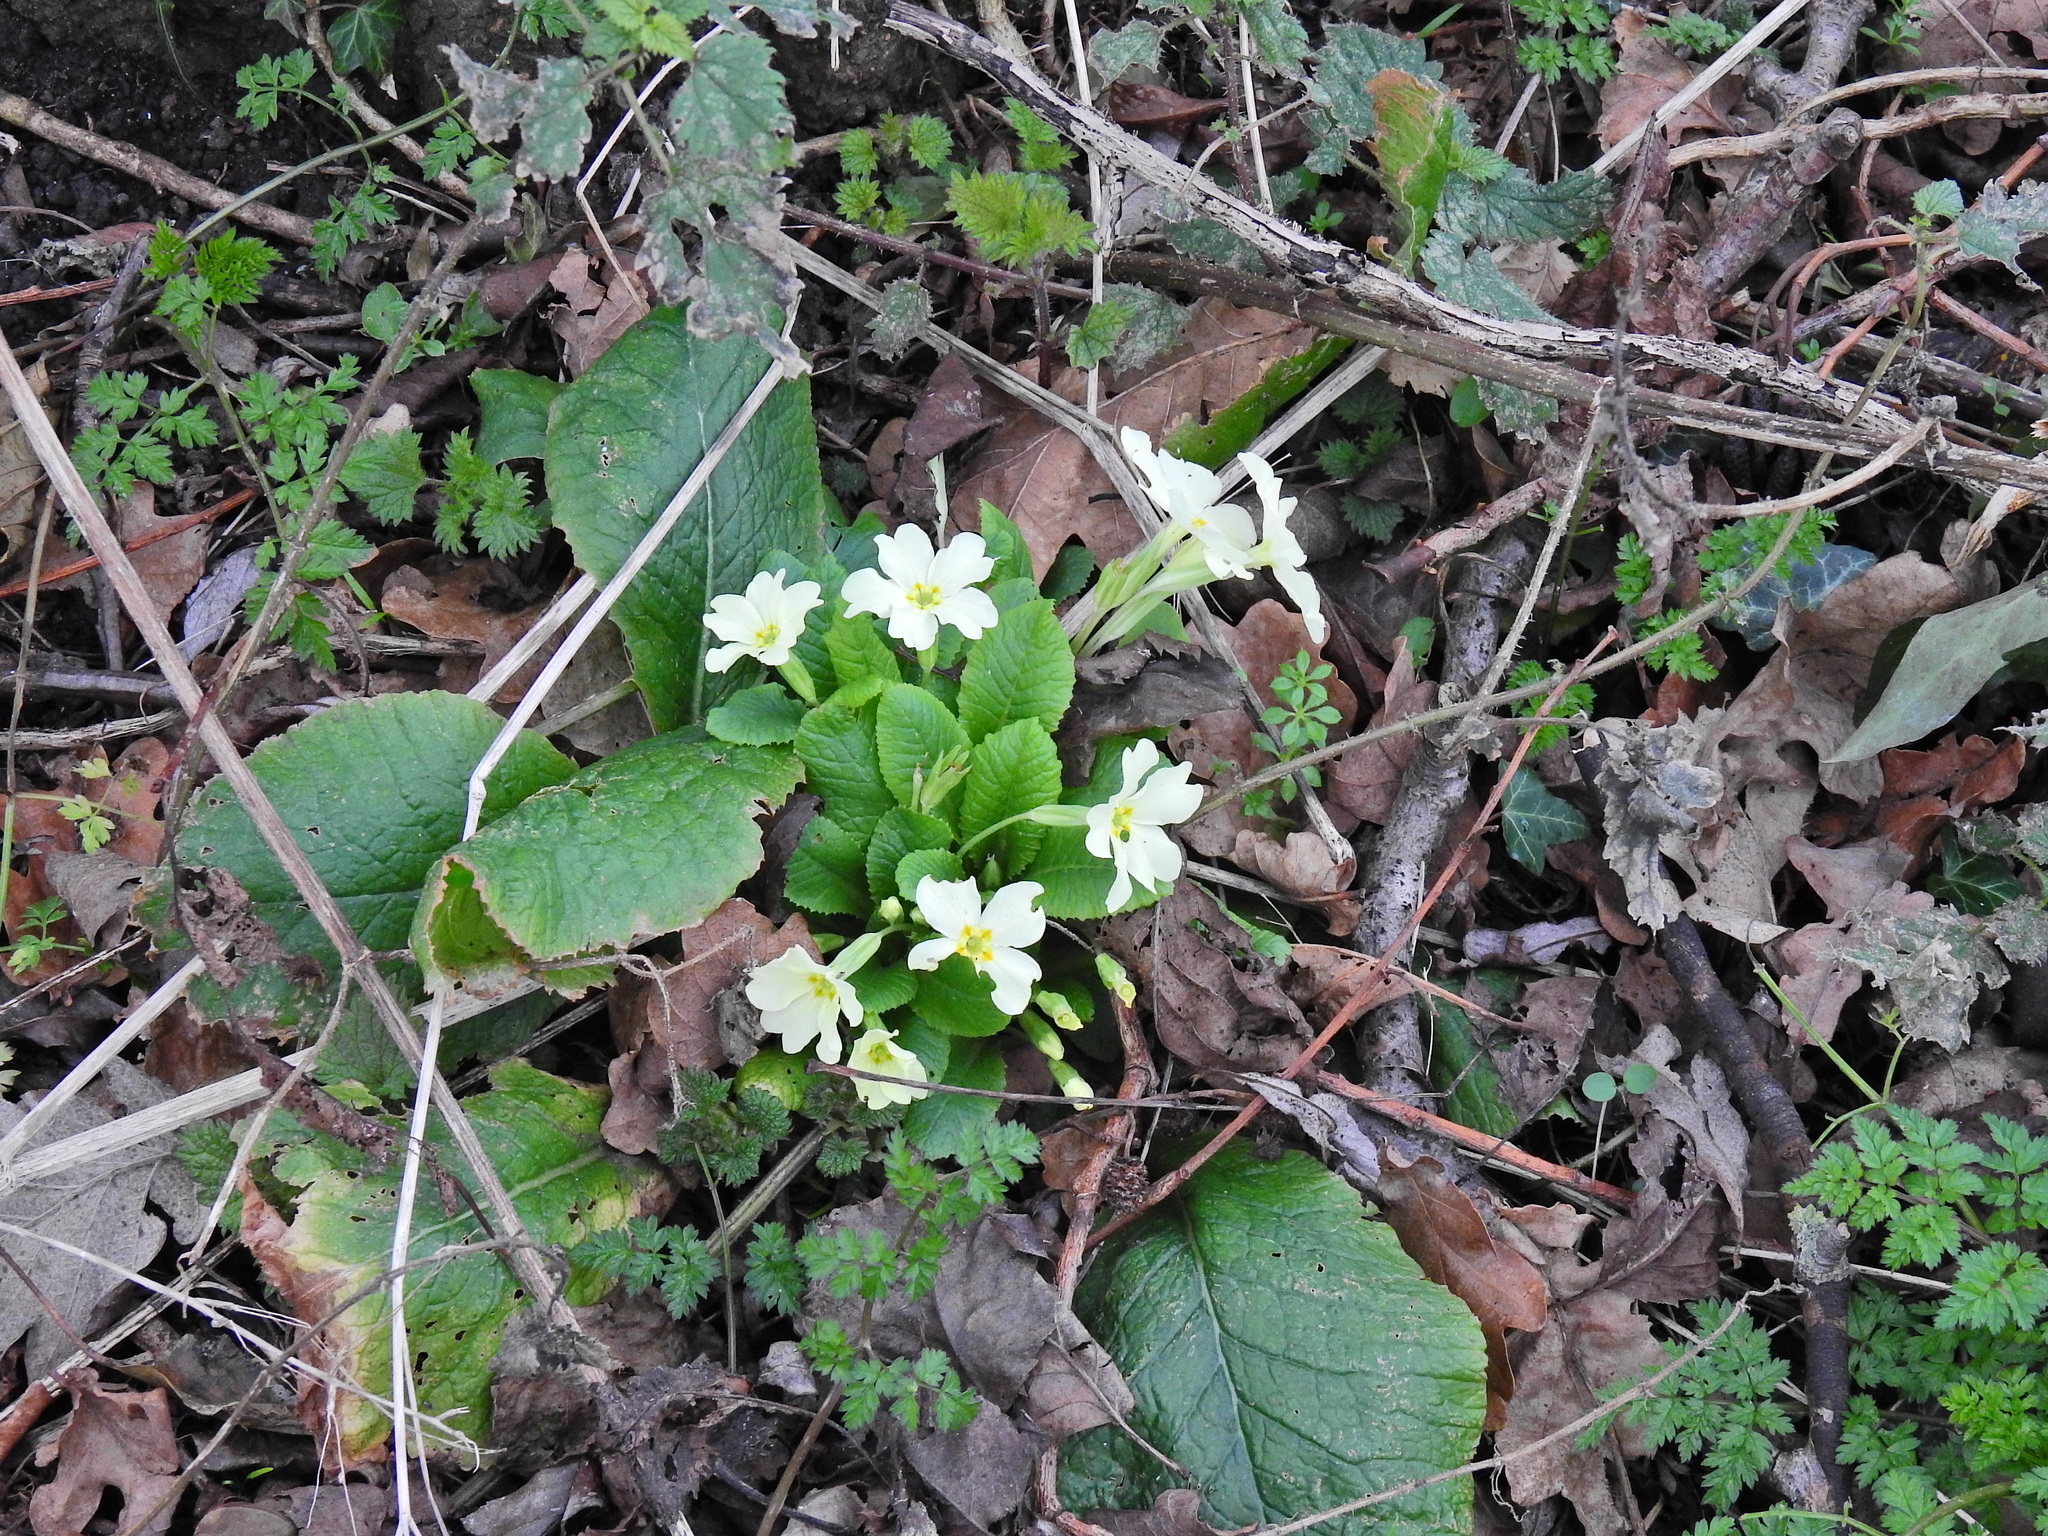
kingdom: Plantae
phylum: Tracheophyta
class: Magnoliopsida
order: Ericales
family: Primulaceae
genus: Primula
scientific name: Primula vulgaris
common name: Primrose
